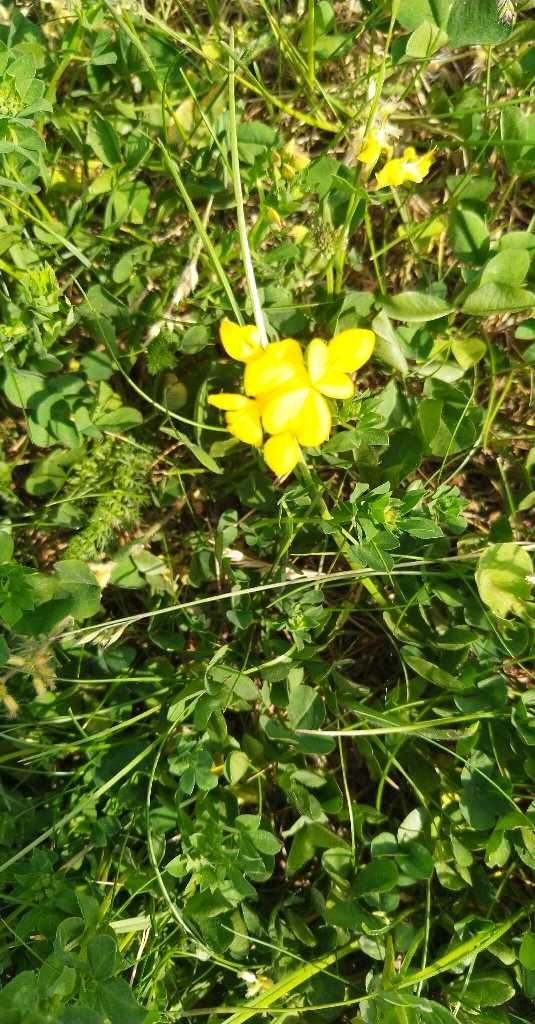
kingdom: Plantae
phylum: Tracheophyta
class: Magnoliopsida
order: Fabales
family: Fabaceae
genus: Lotus
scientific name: Lotus corniculatus
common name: Common bird's-foot-trefoil
